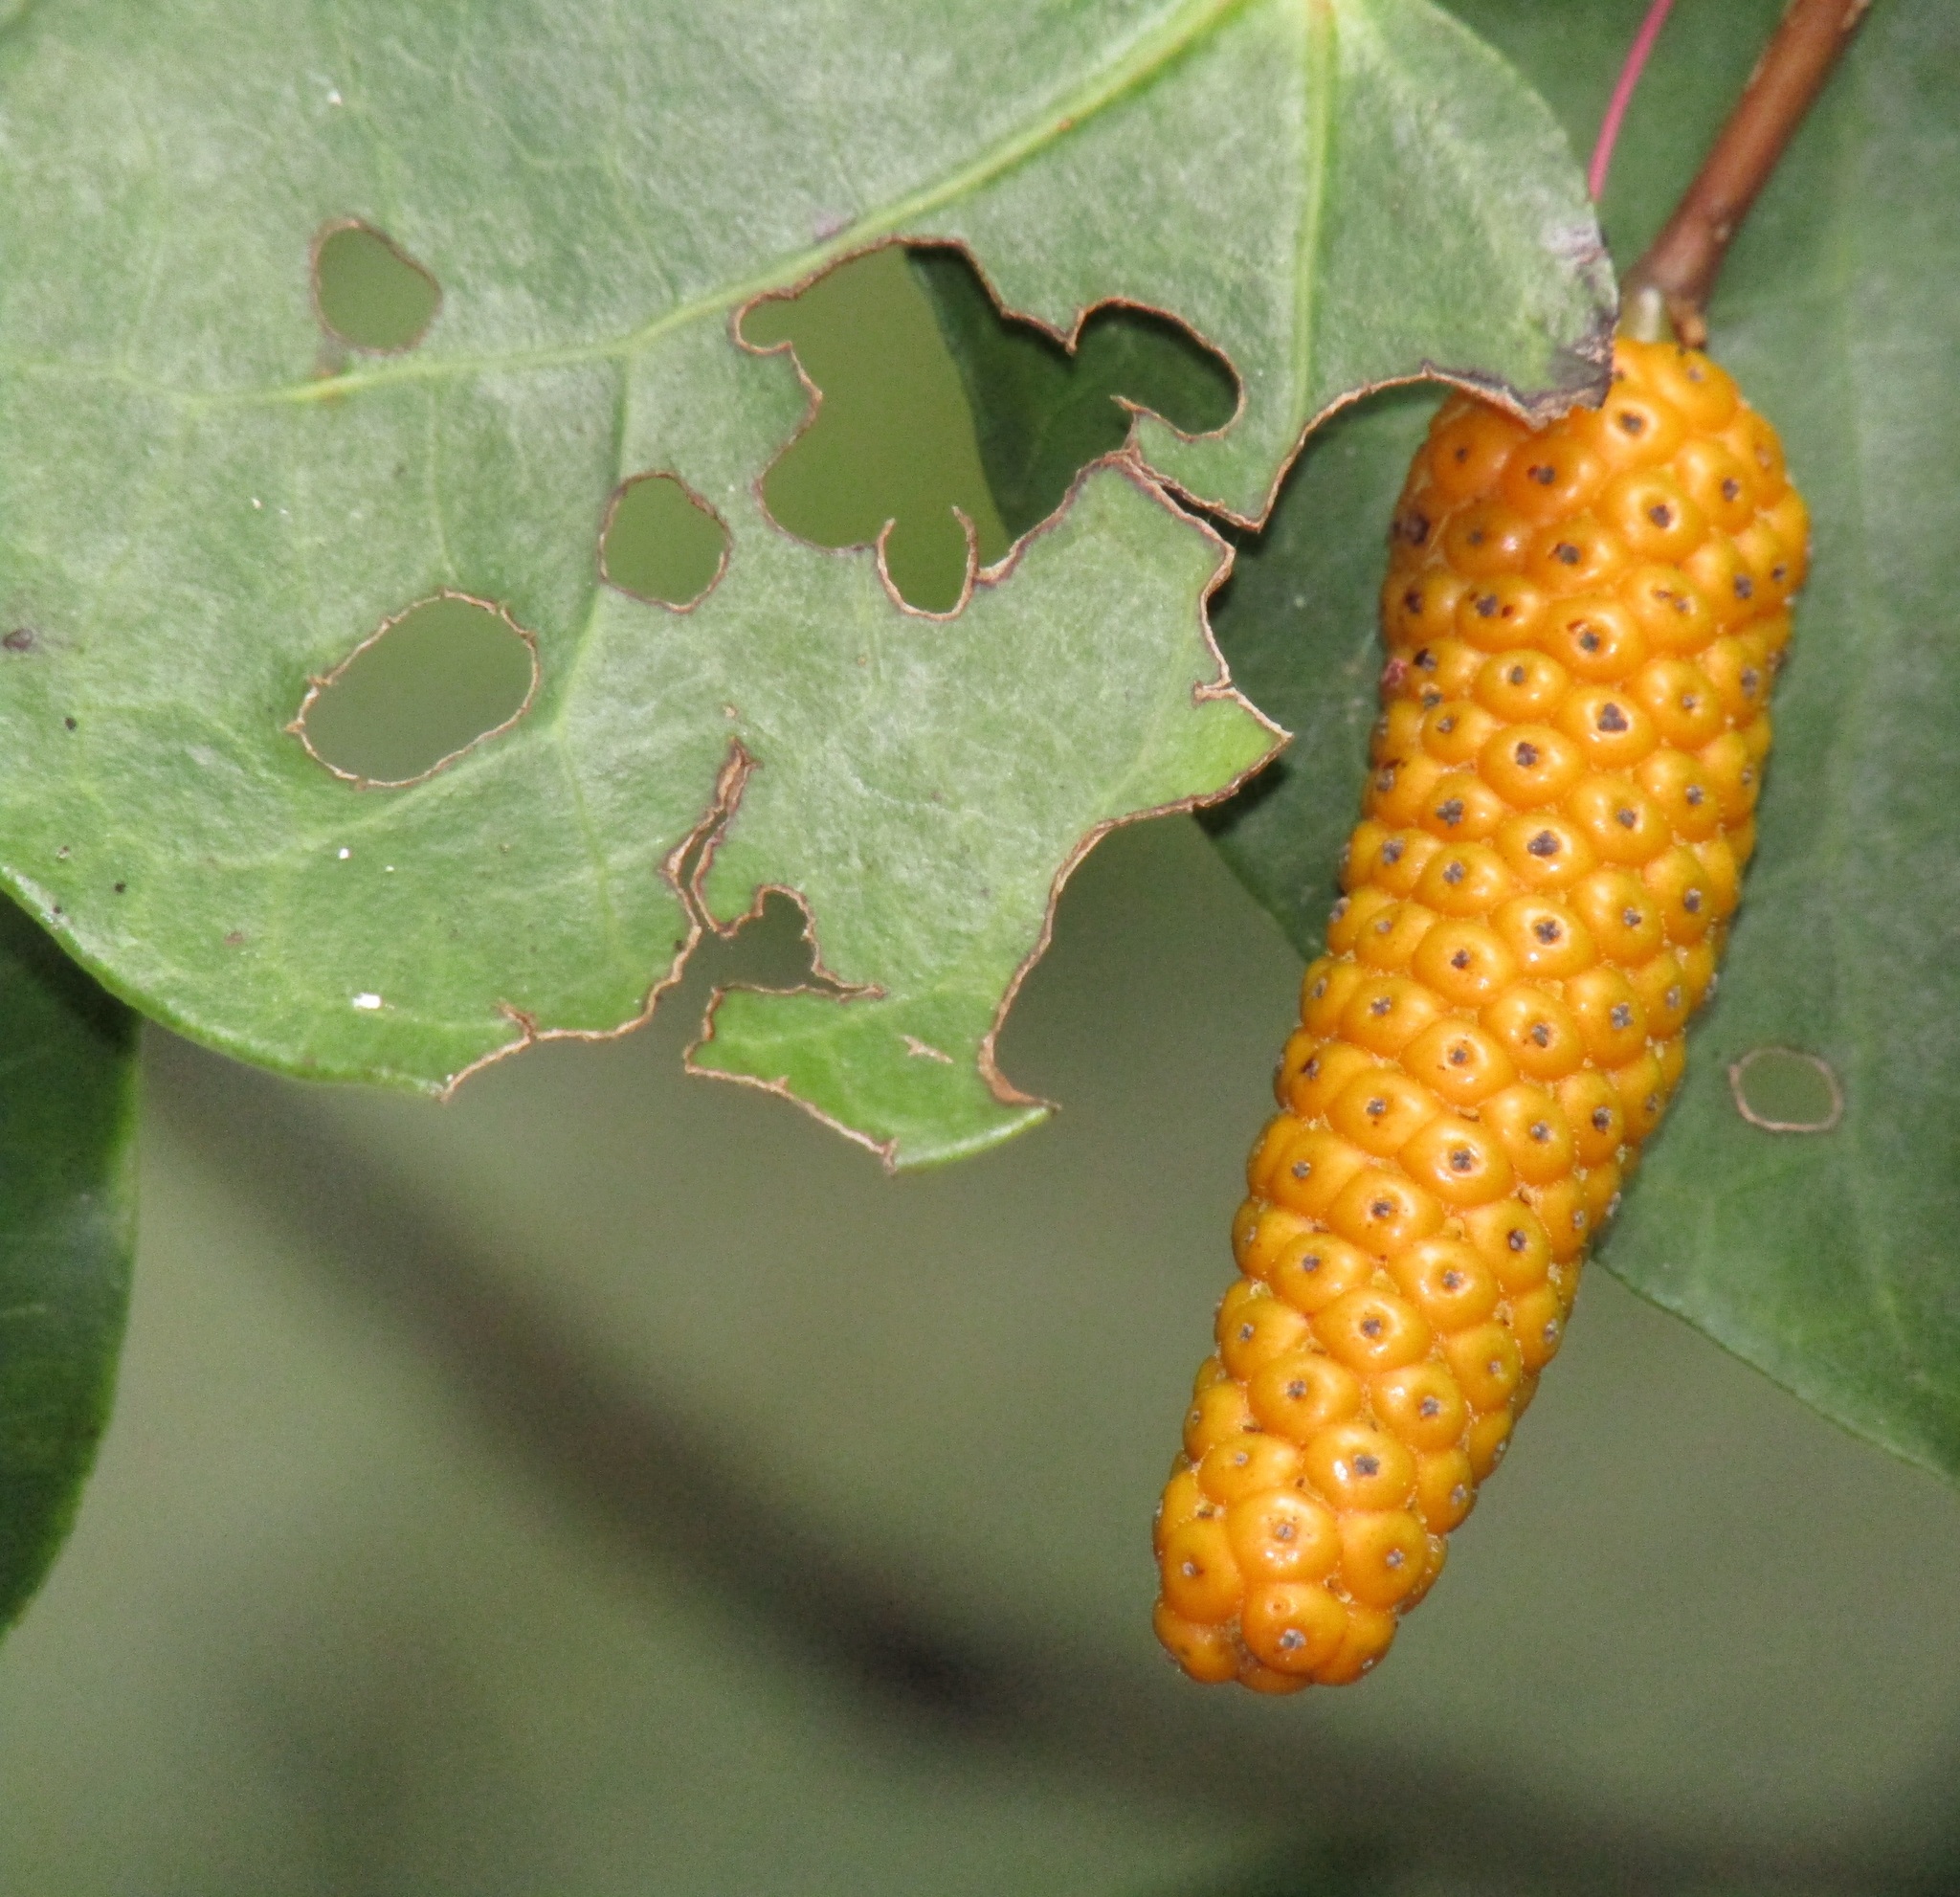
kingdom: Plantae
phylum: Tracheophyta
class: Magnoliopsida
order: Piperales
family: Piperaceae
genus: Macropiper
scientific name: Macropiper excelsum
